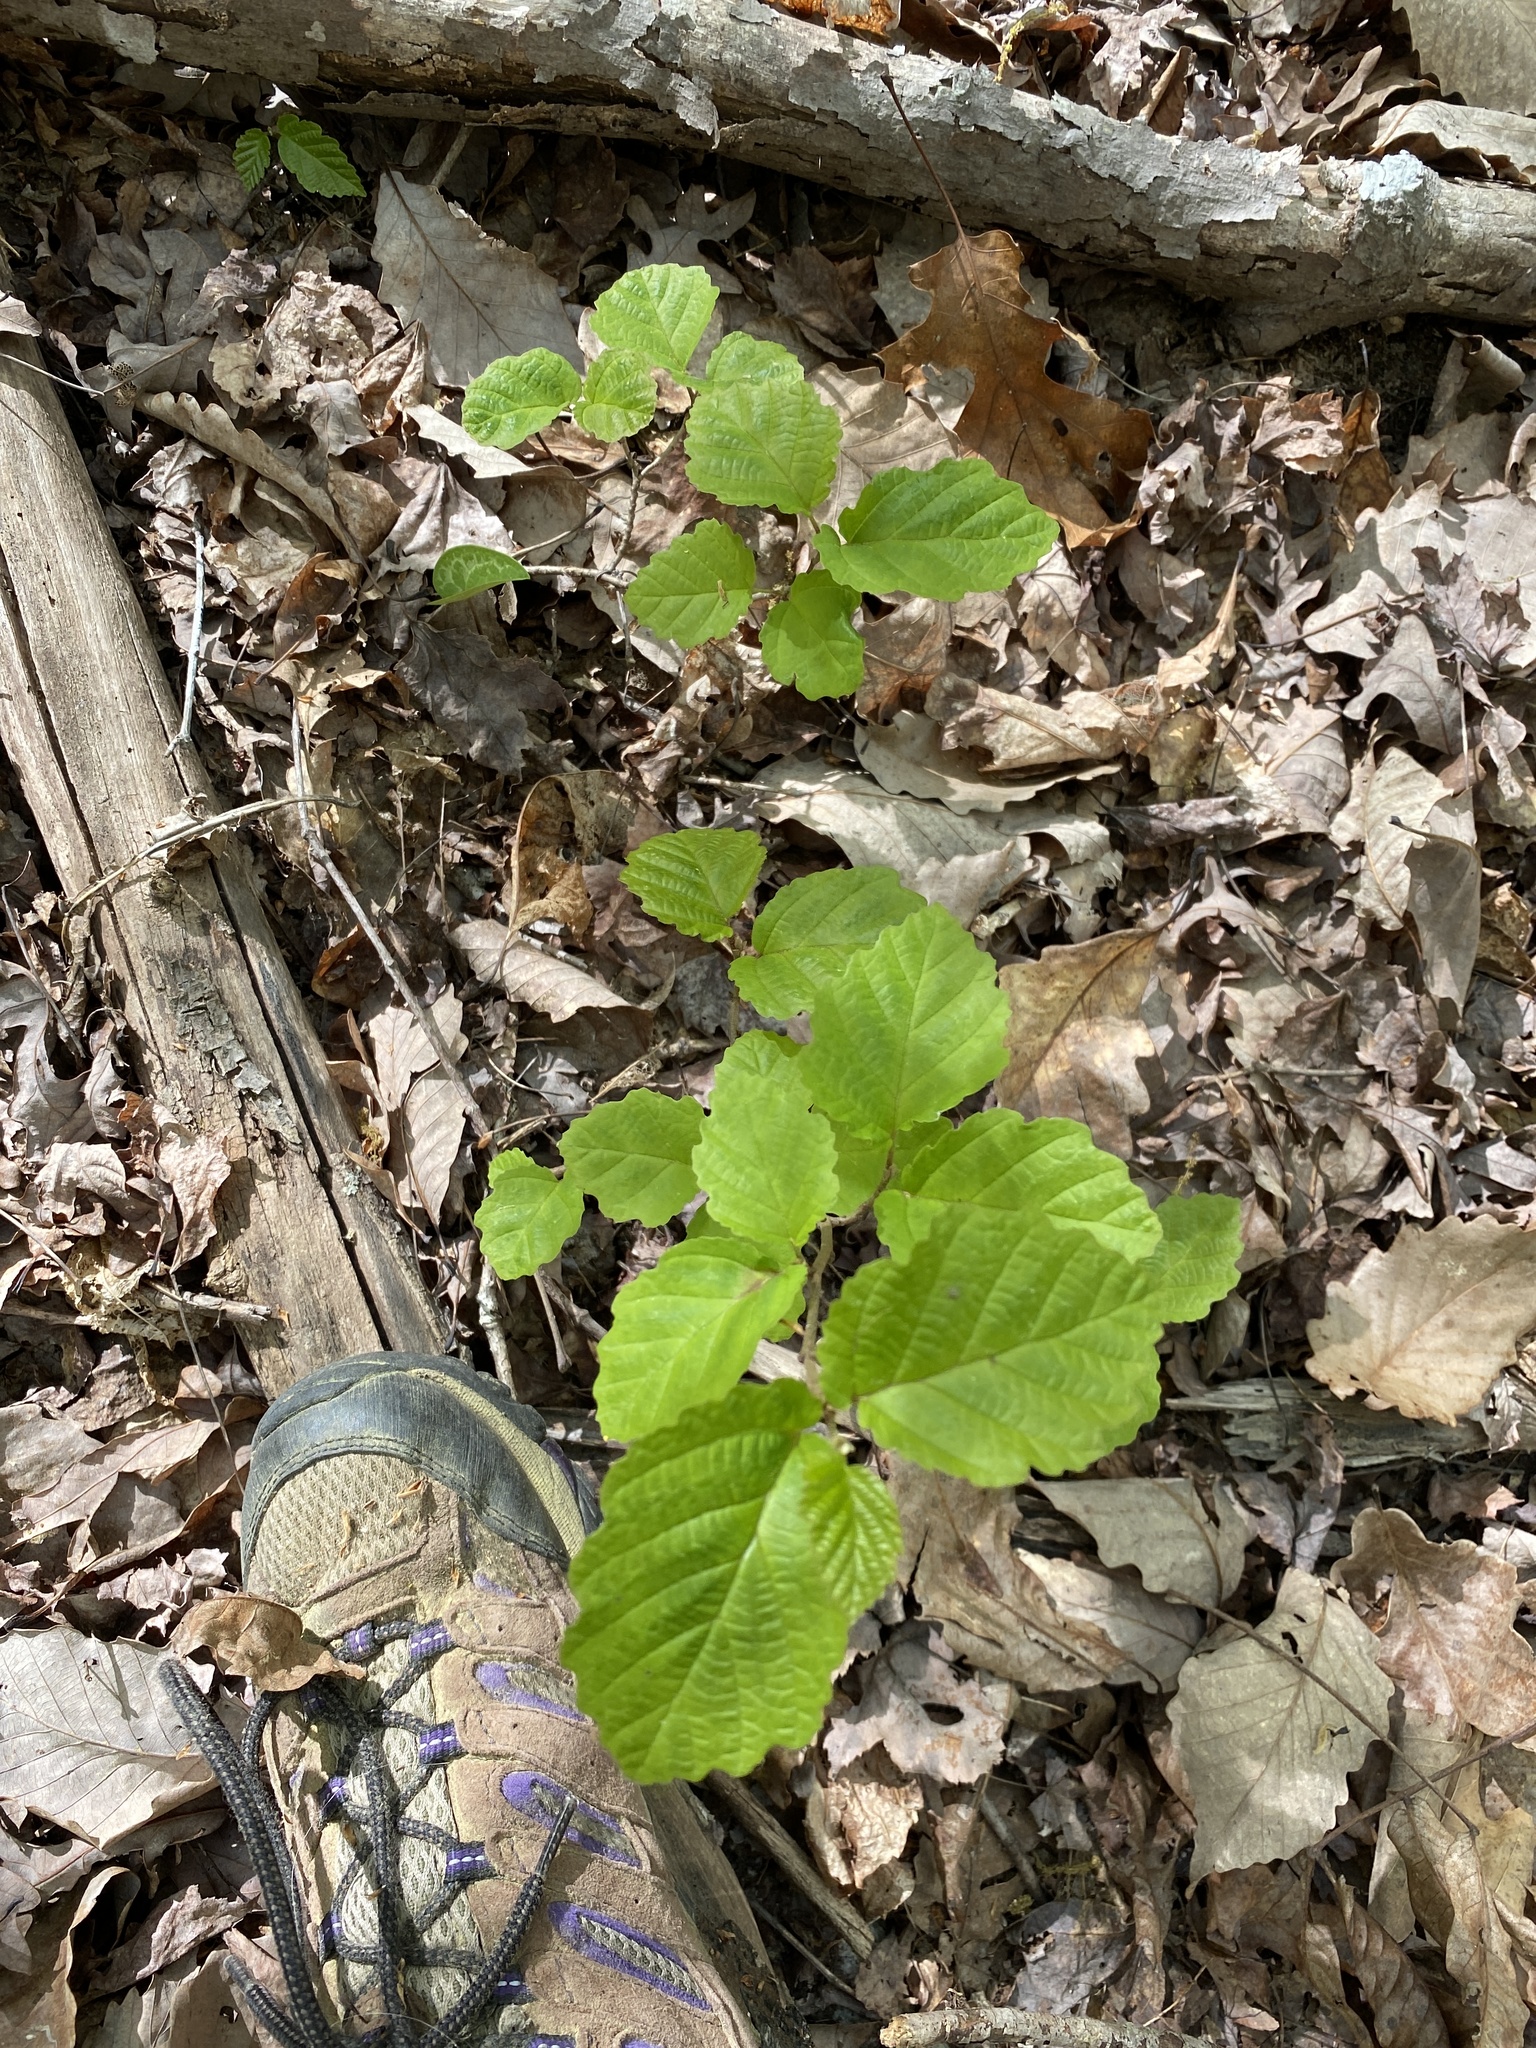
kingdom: Plantae
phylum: Tracheophyta
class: Magnoliopsida
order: Saxifragales
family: Hamamelidaceae
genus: Hamamelis
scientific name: Hamamelis virginiana
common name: Witch-hazel
